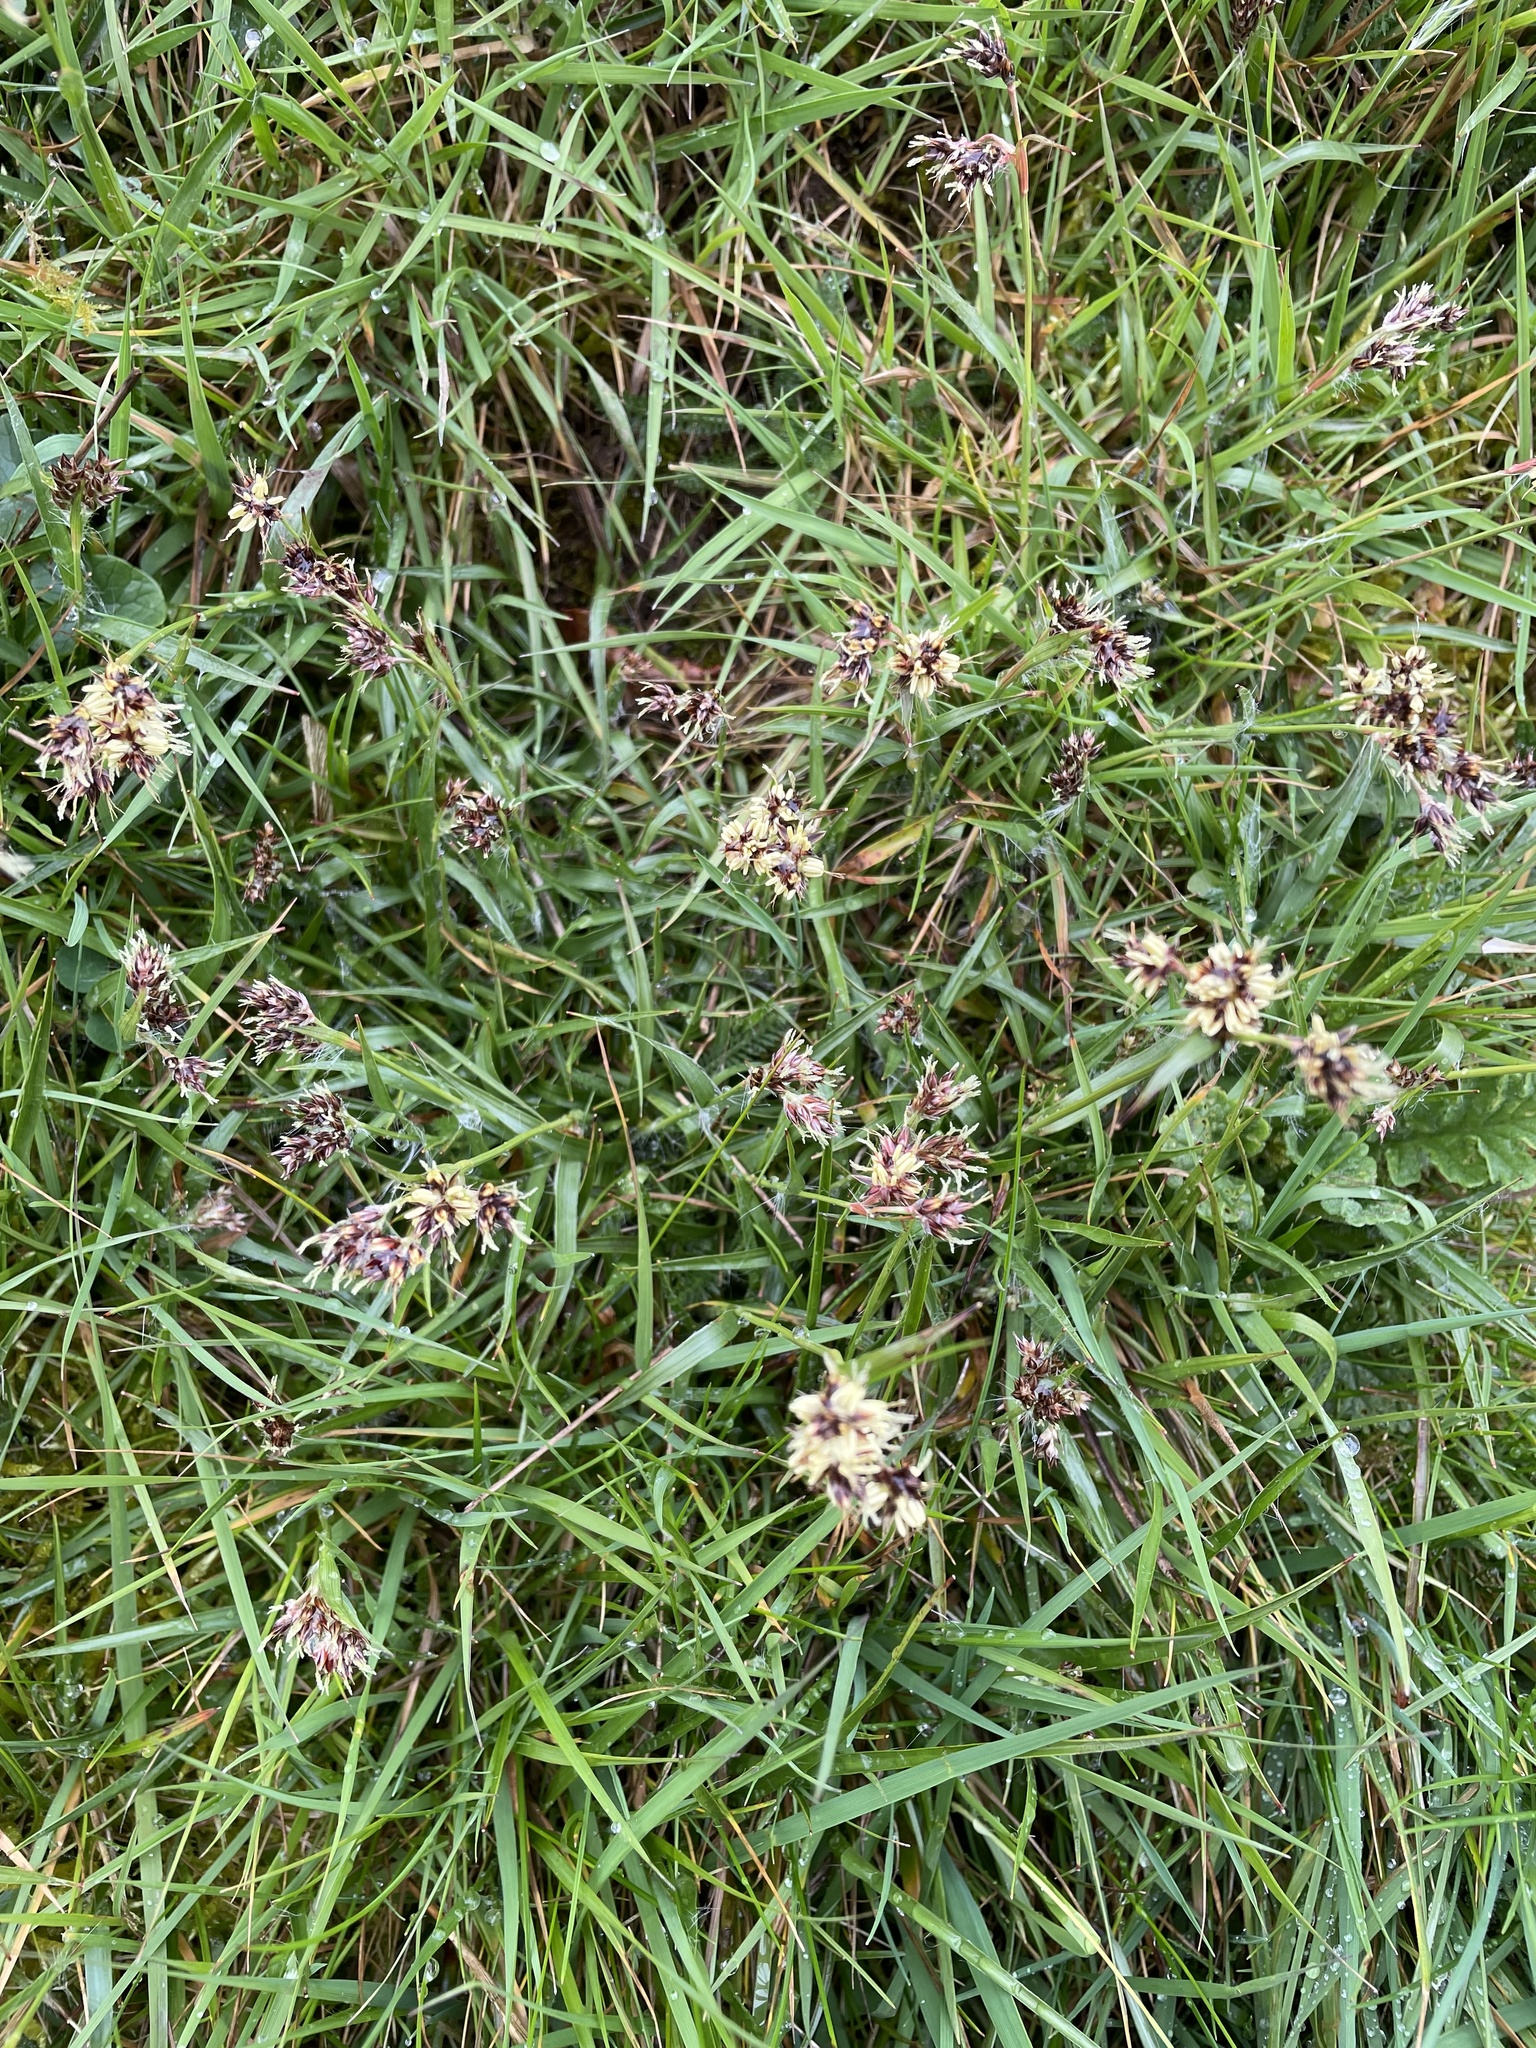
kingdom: Plantae
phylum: Tracheophyta
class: Liliopsida
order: Poales
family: Juncaceae
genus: Luzula
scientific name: Luzula campestris
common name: Field wood-rush
